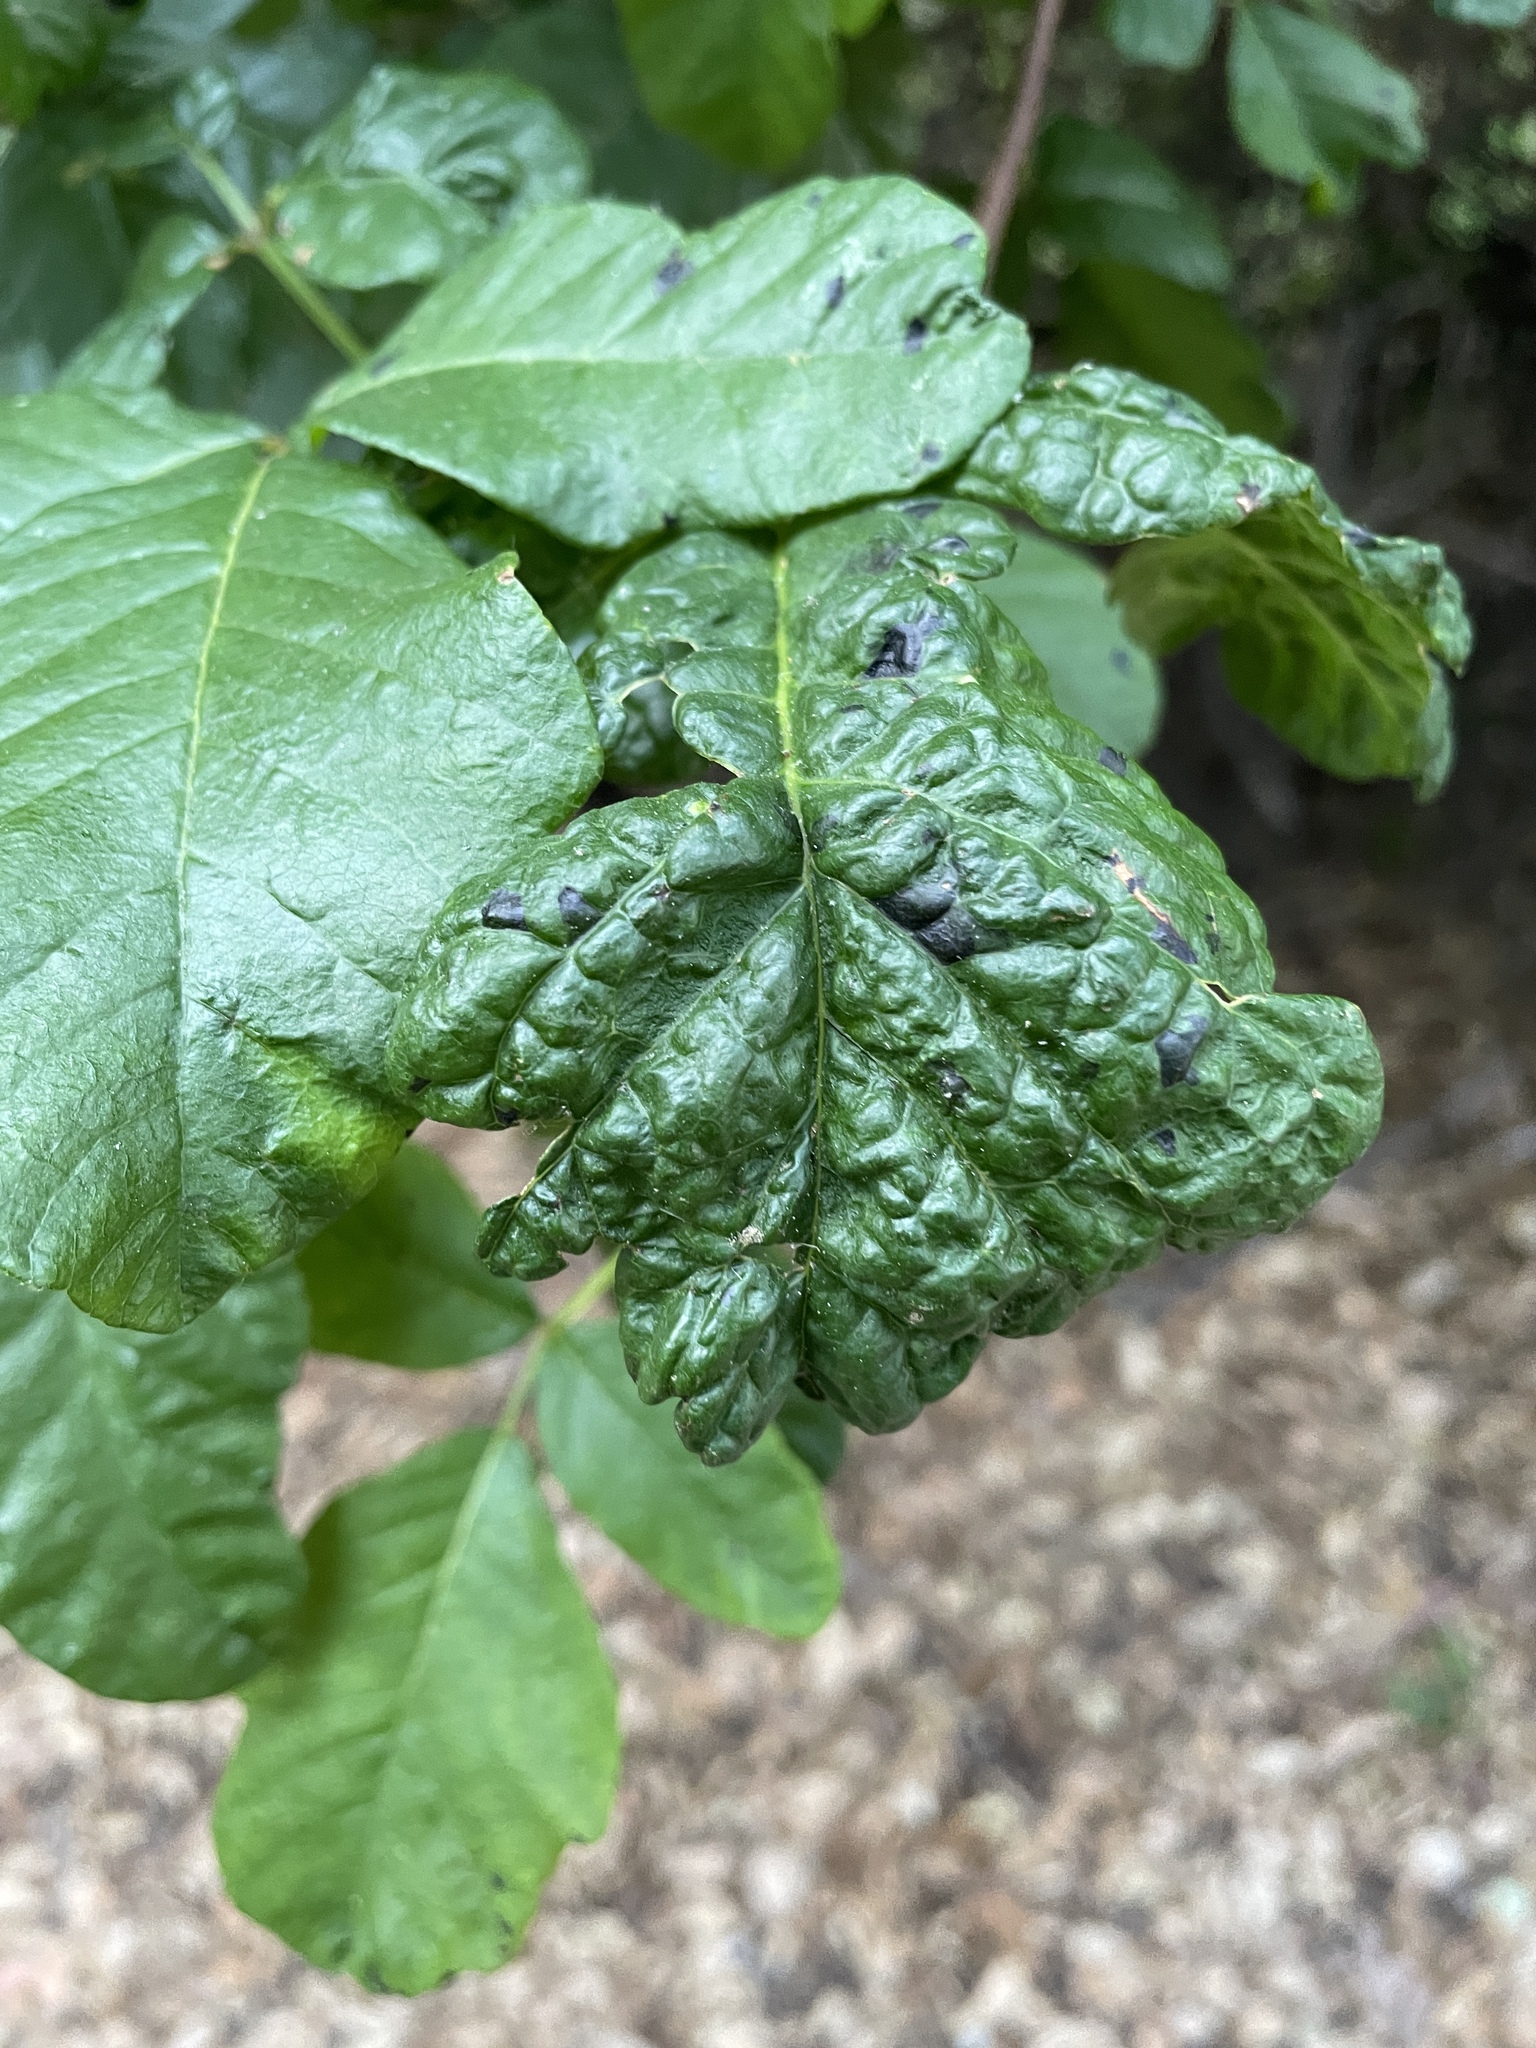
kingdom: Plantae
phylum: Tracheophyta
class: Magnoliopsida
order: Sapindales
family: Anacardiaceae
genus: Toxicodendron
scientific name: Toxicodendron diversilobum
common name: Pacific poison-oak
